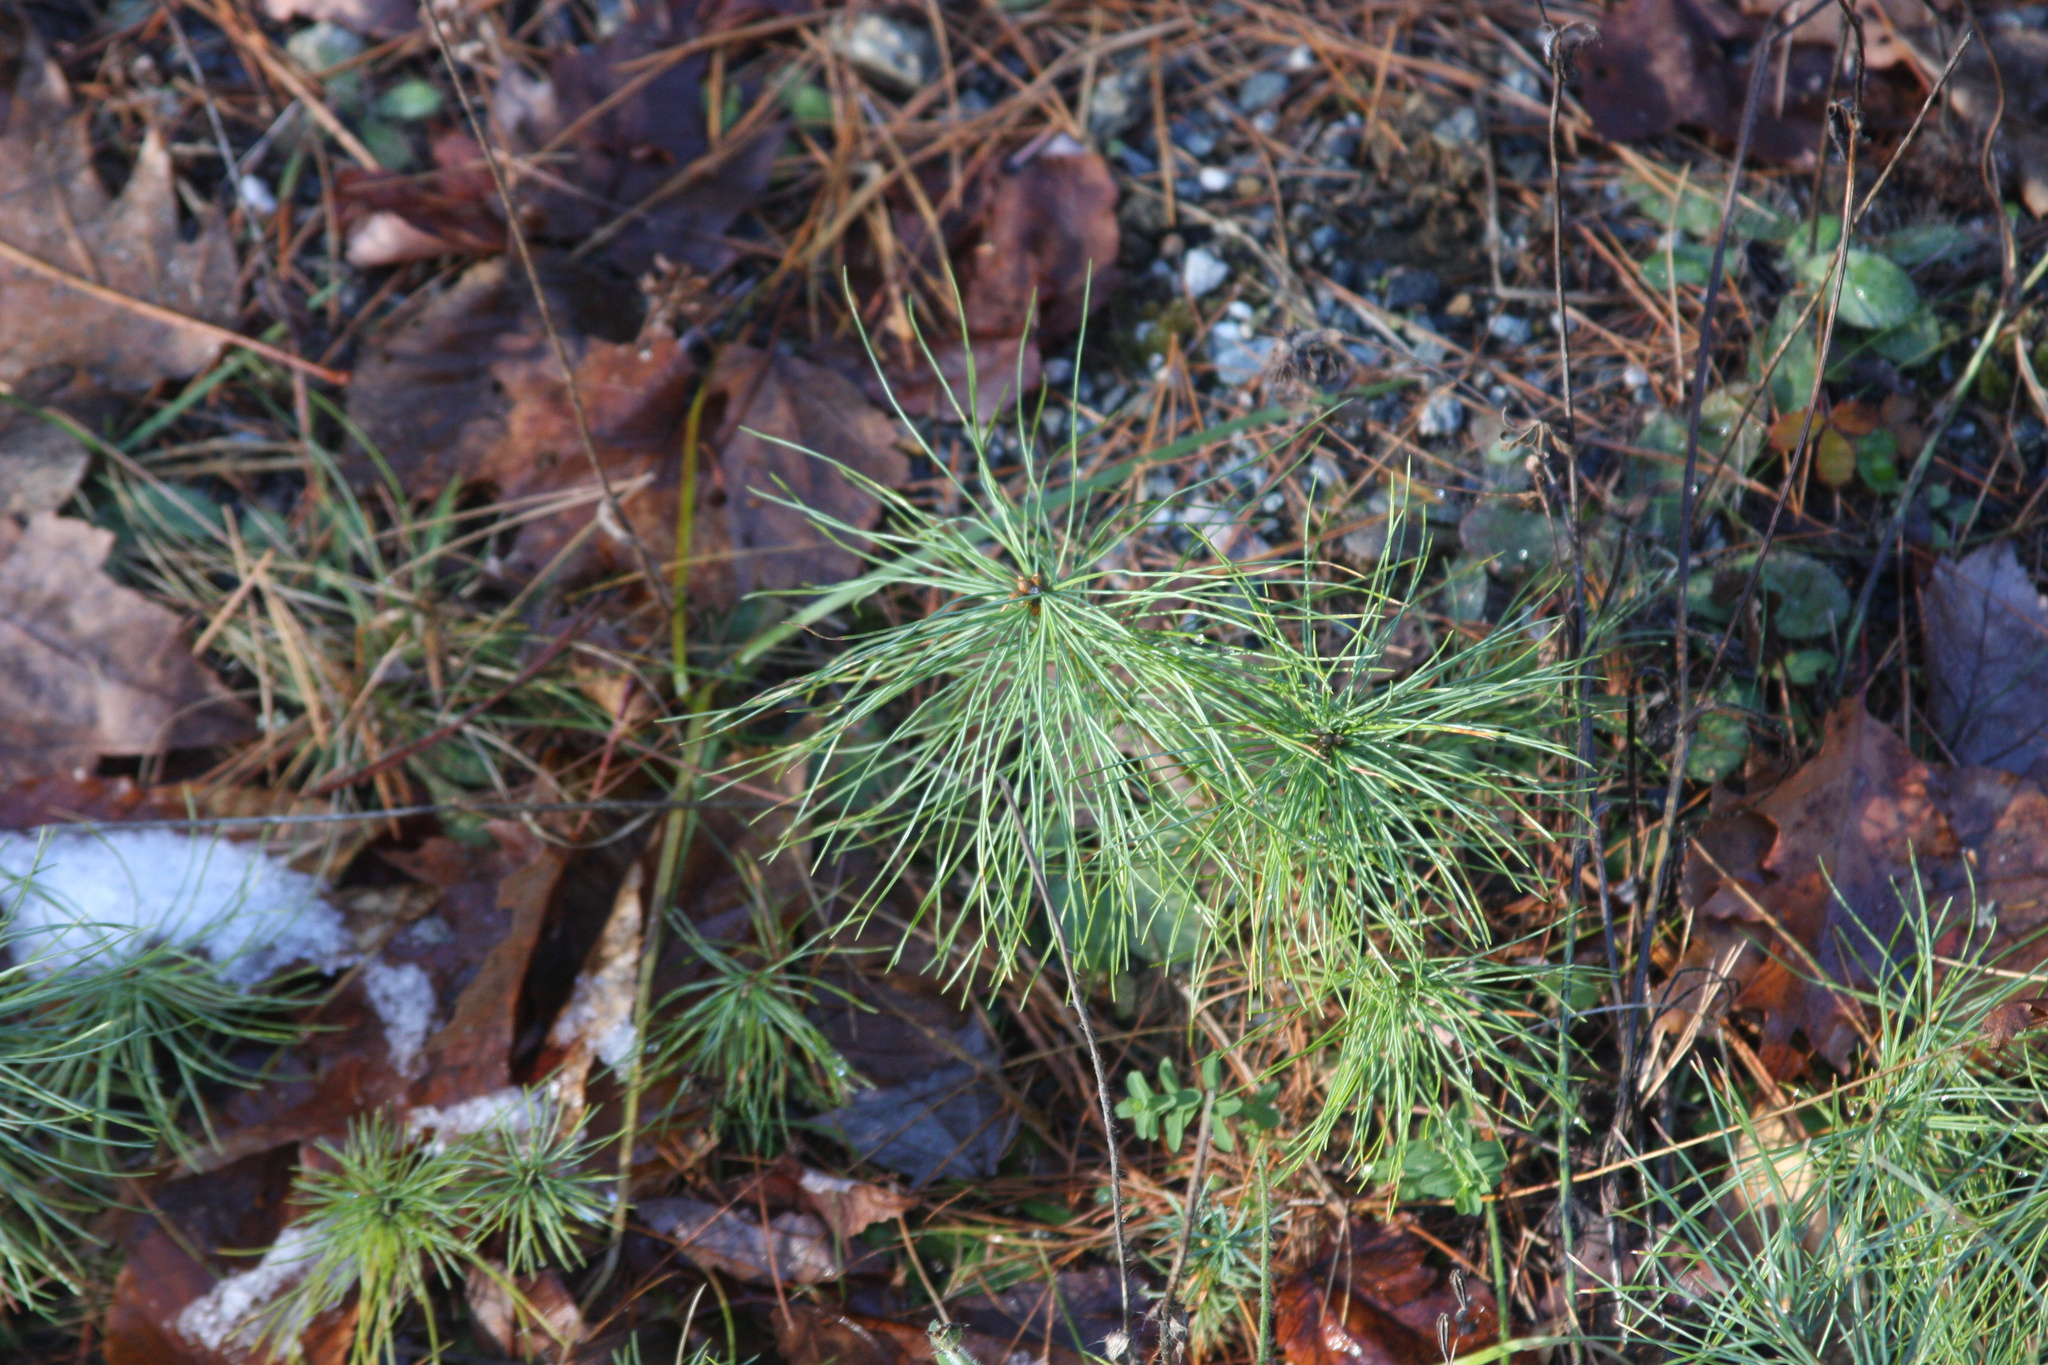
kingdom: Plantae
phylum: Tracheophyta
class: Pinopsida
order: Pinales
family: Pinaceae
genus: Pinus
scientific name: Pinus strobus
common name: Weymouth pine
